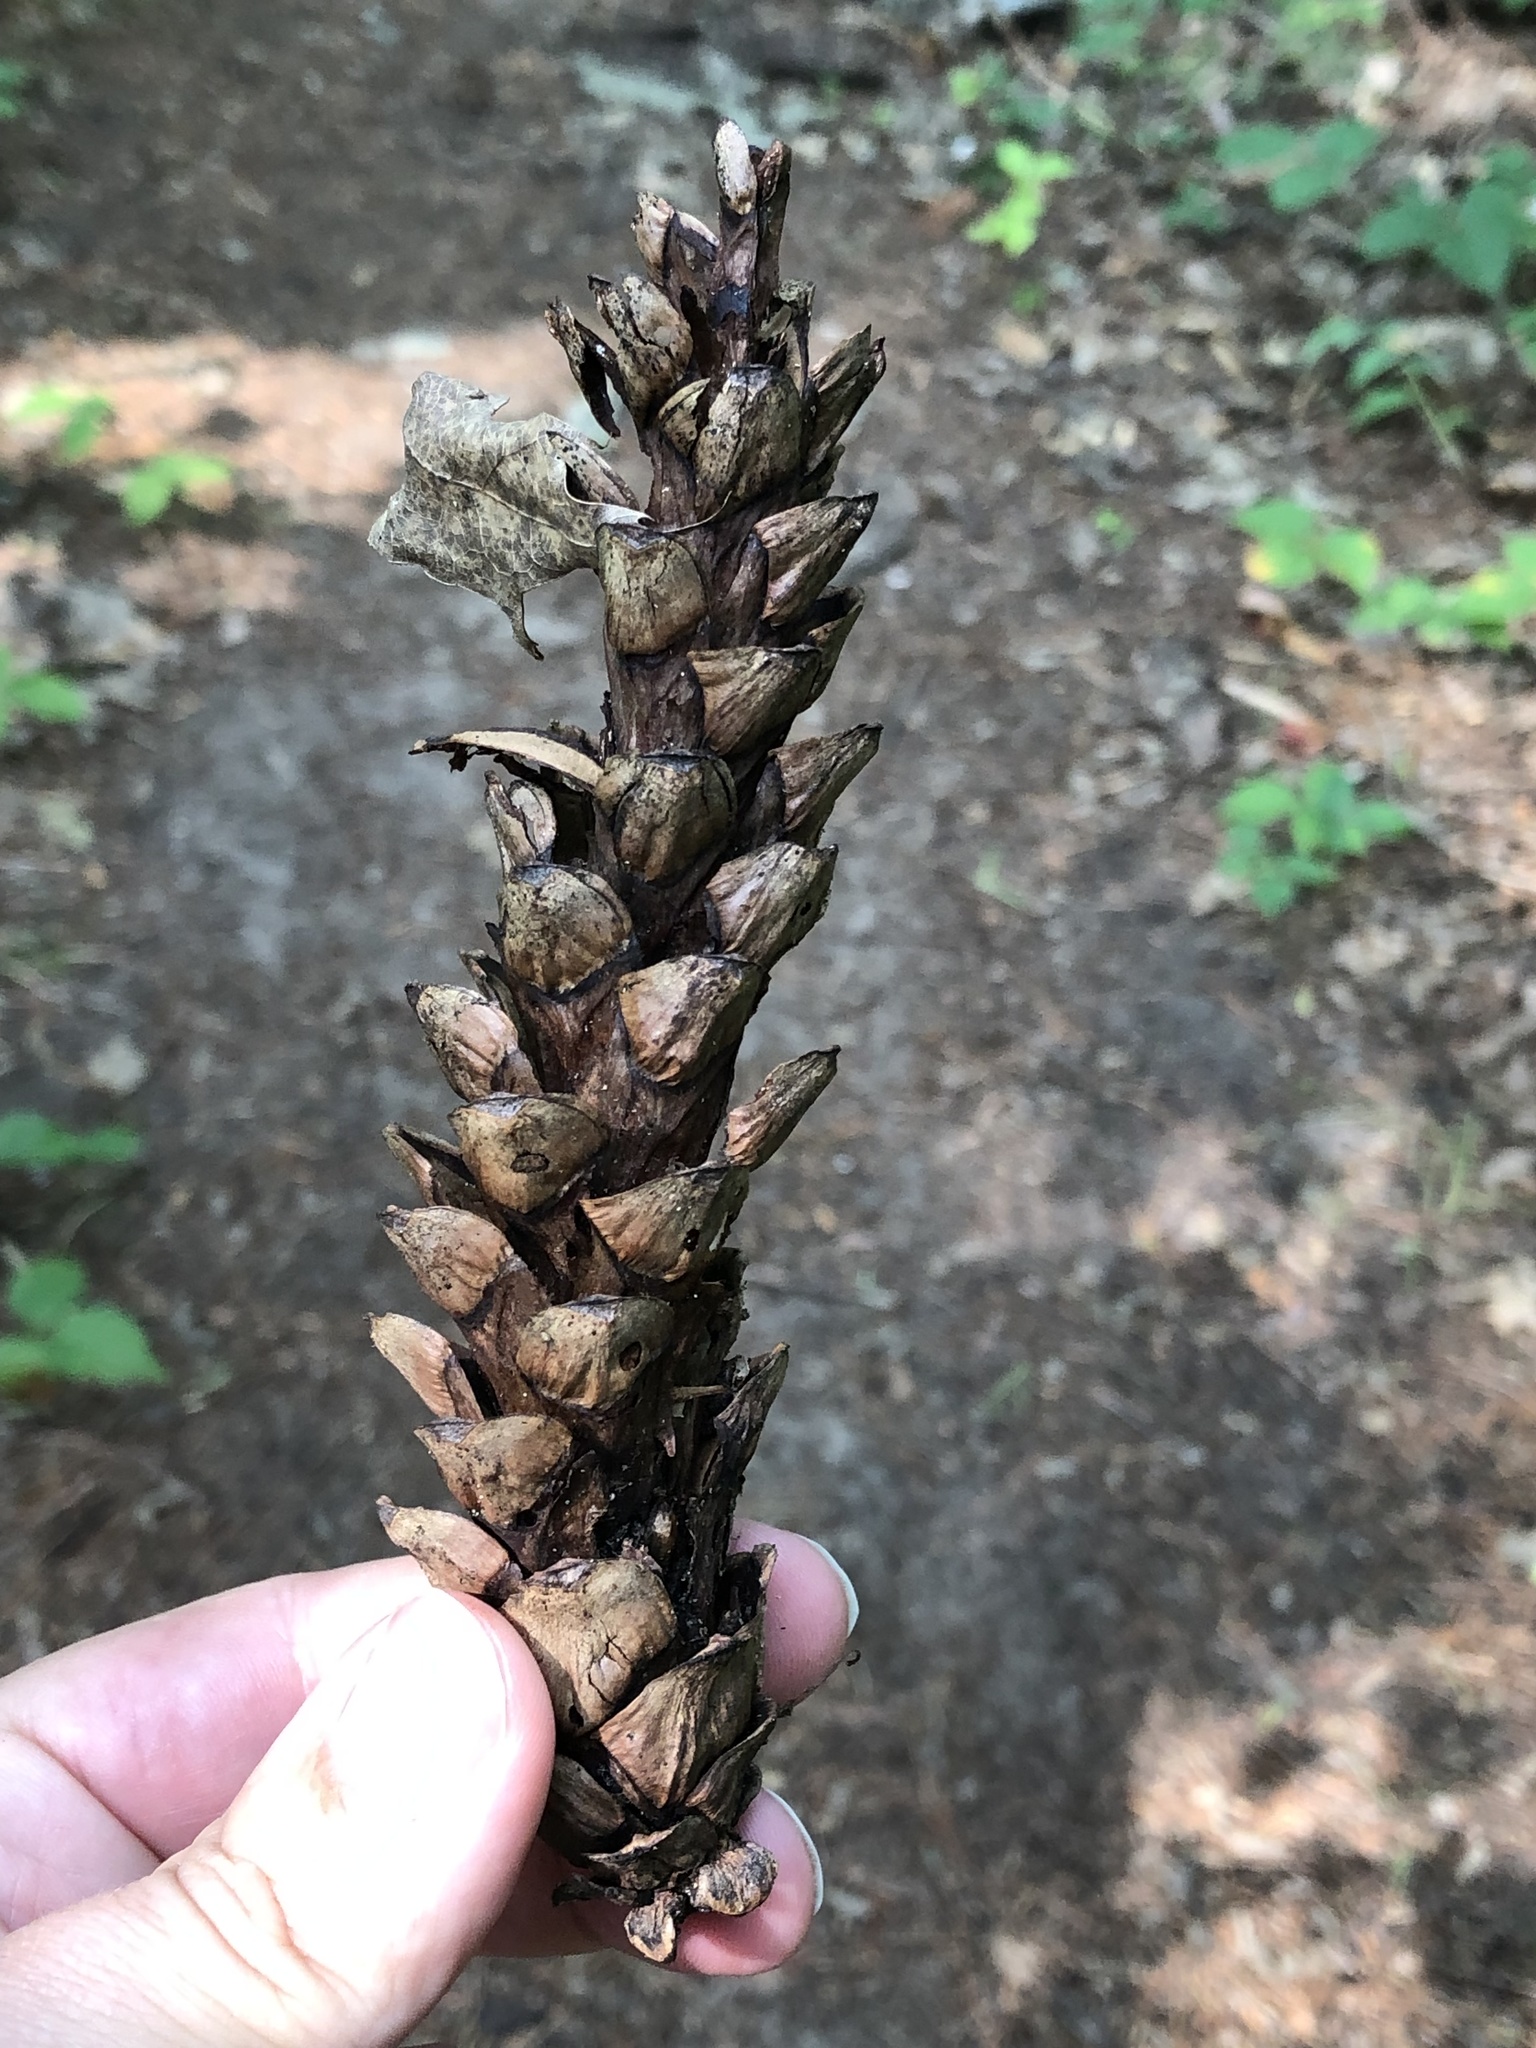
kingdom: Plantae
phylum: Tracheophyta
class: Pinopsida
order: Pinales
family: Pinaceae
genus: Pinus
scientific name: Pinus strobus
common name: Weymouth pine
